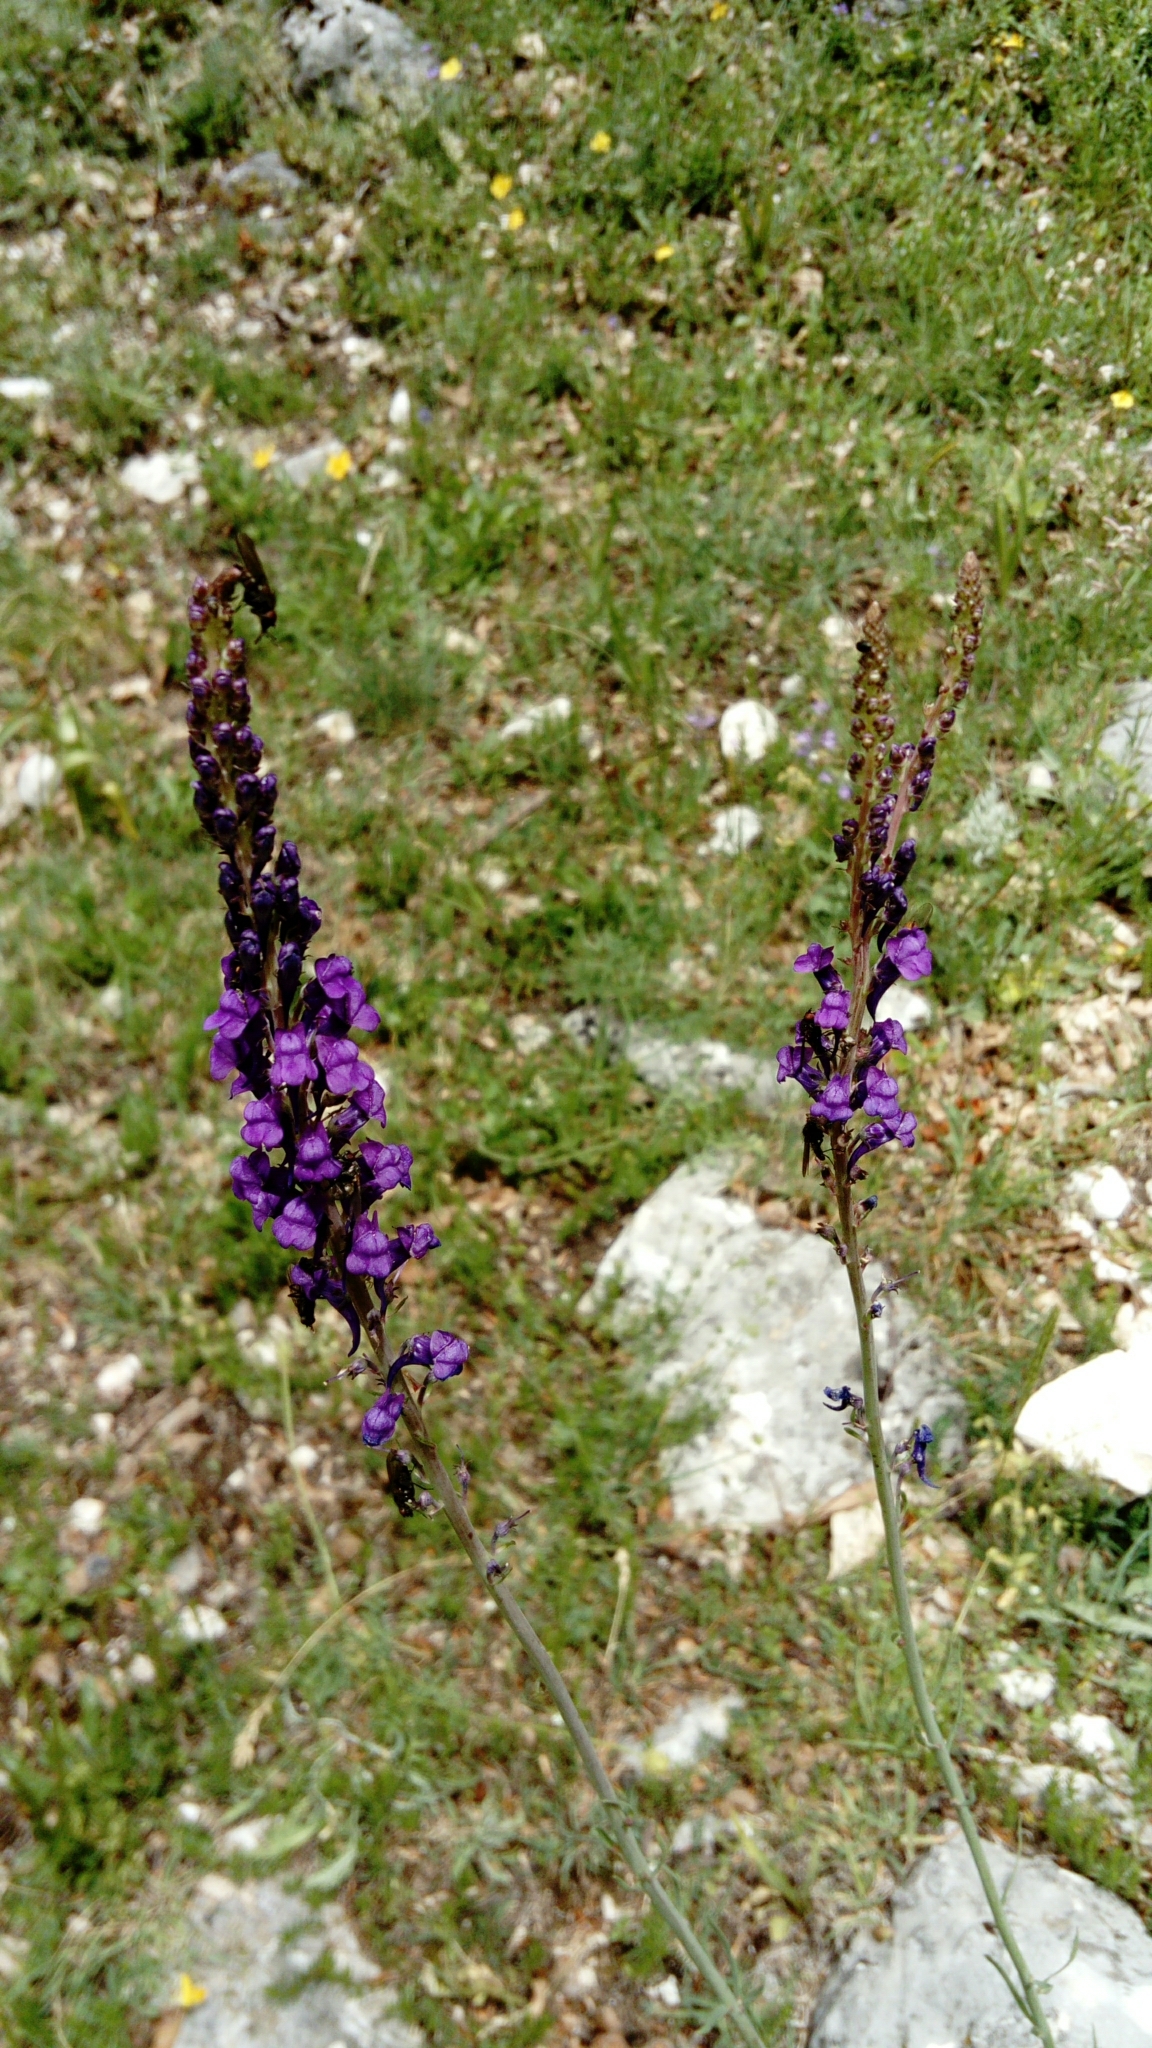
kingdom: Plantae
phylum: Tracheophyta
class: Magnoliopsida
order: Lamiales
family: Plantaginaceae
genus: Linaria
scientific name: Linaria purpurea
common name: Purple toadflax
